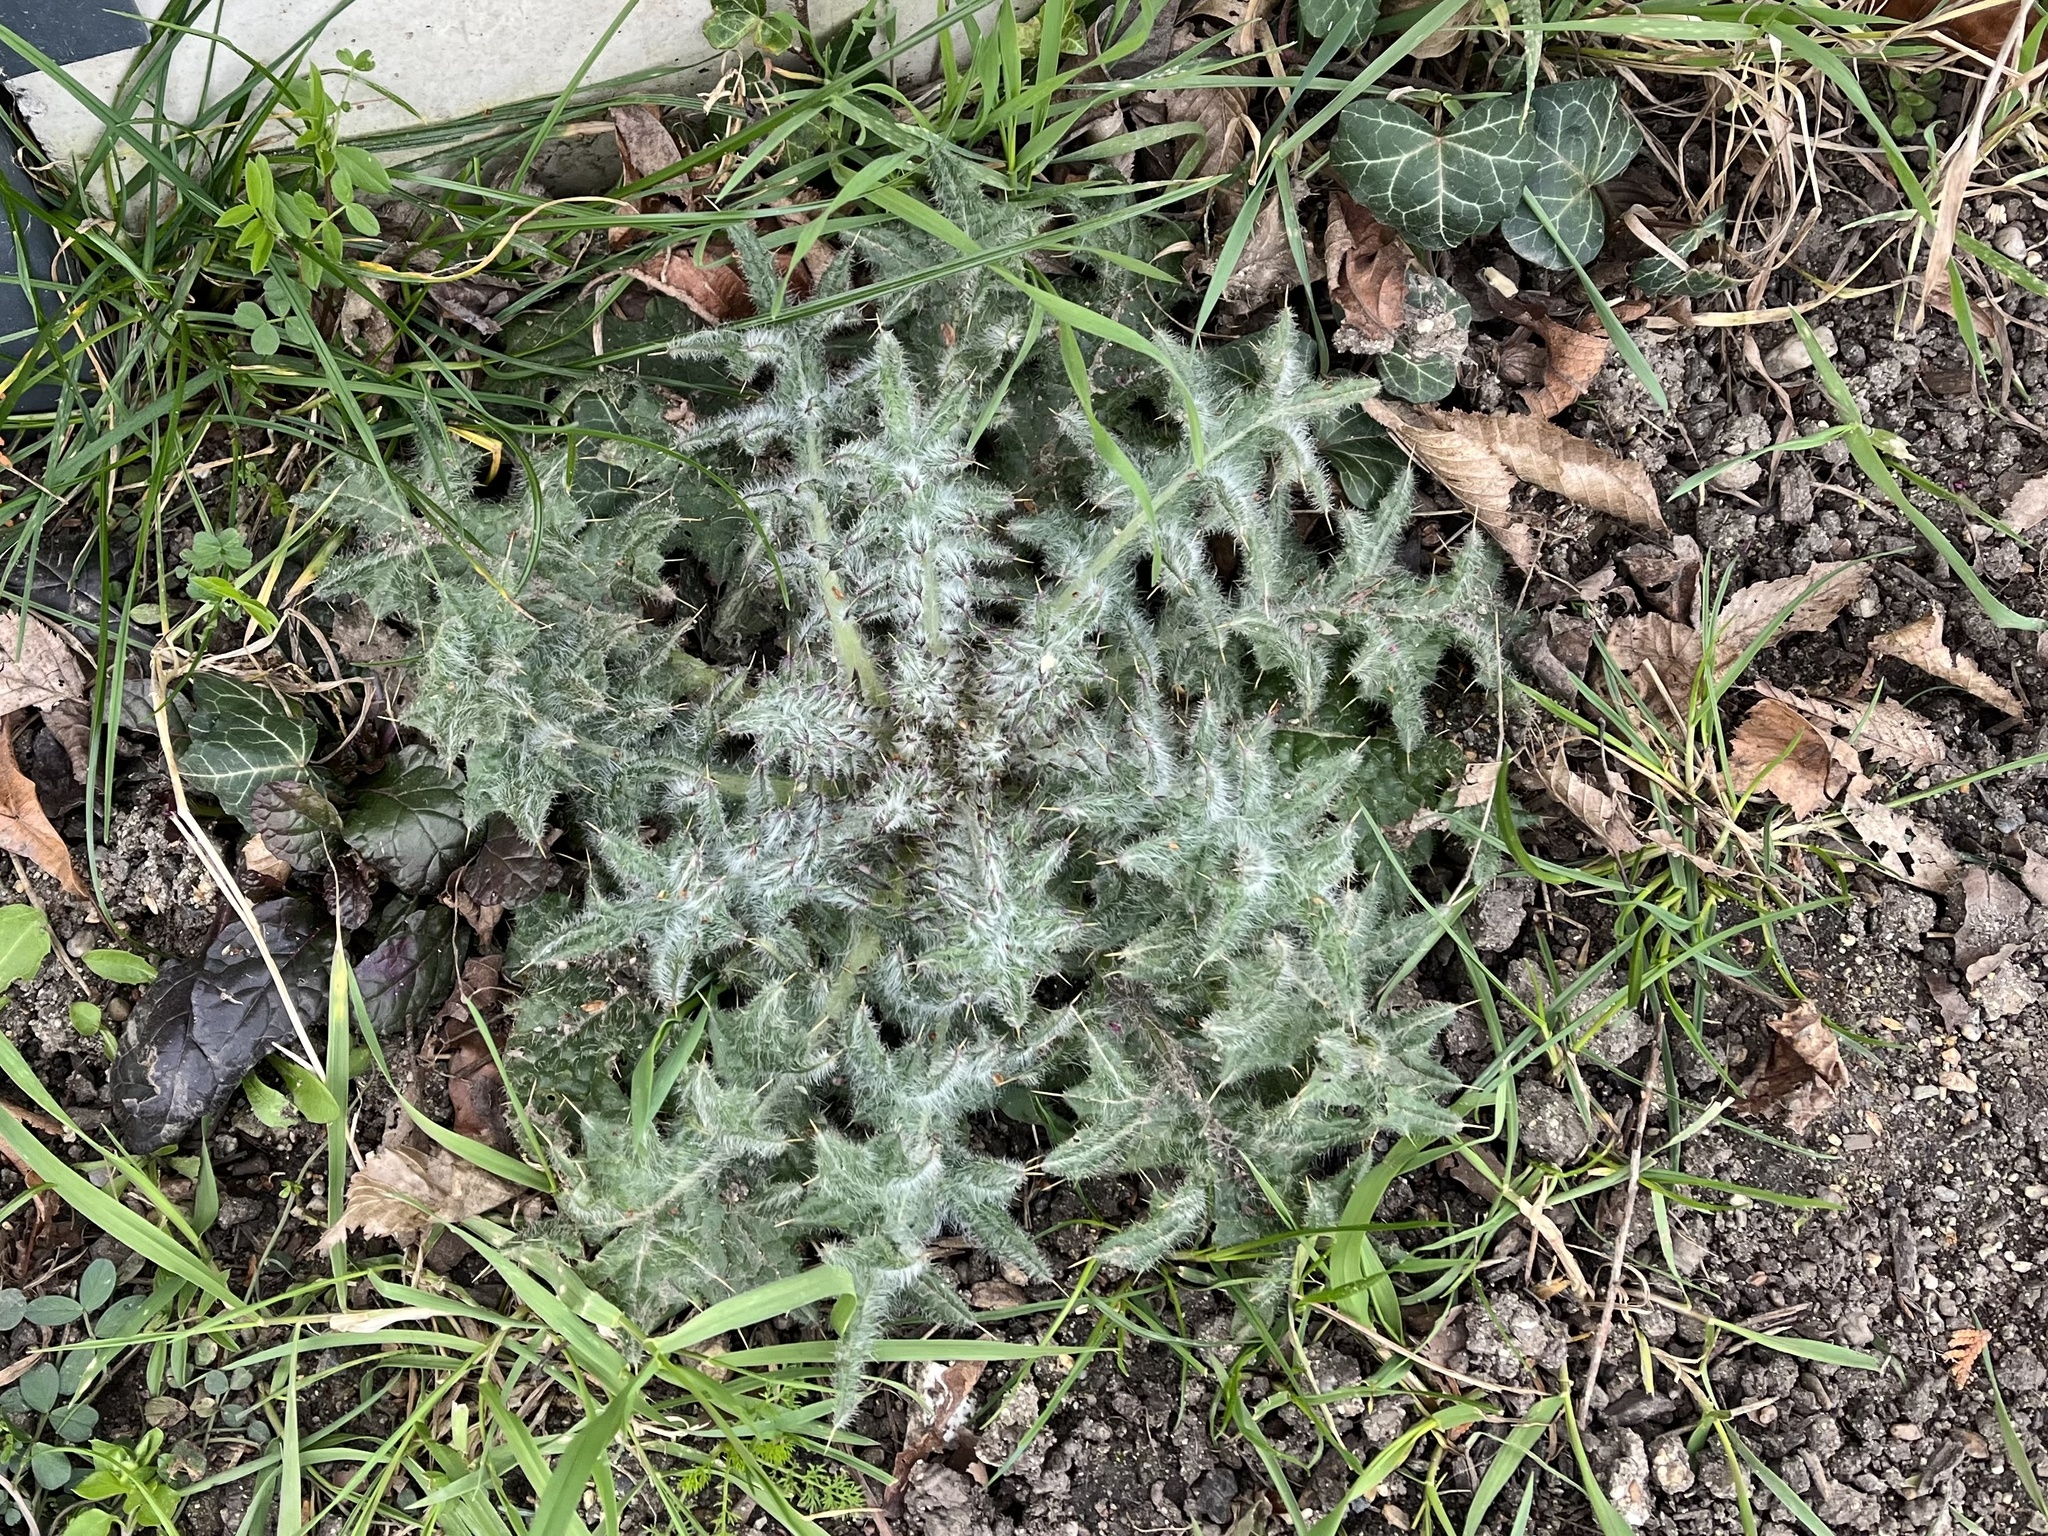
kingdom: Plantae
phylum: Tracheophyta
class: Magnoliopsida
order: Asterales
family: Asteraceae
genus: Cirsium
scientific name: Cirsium vulgare
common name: Bull thistle
